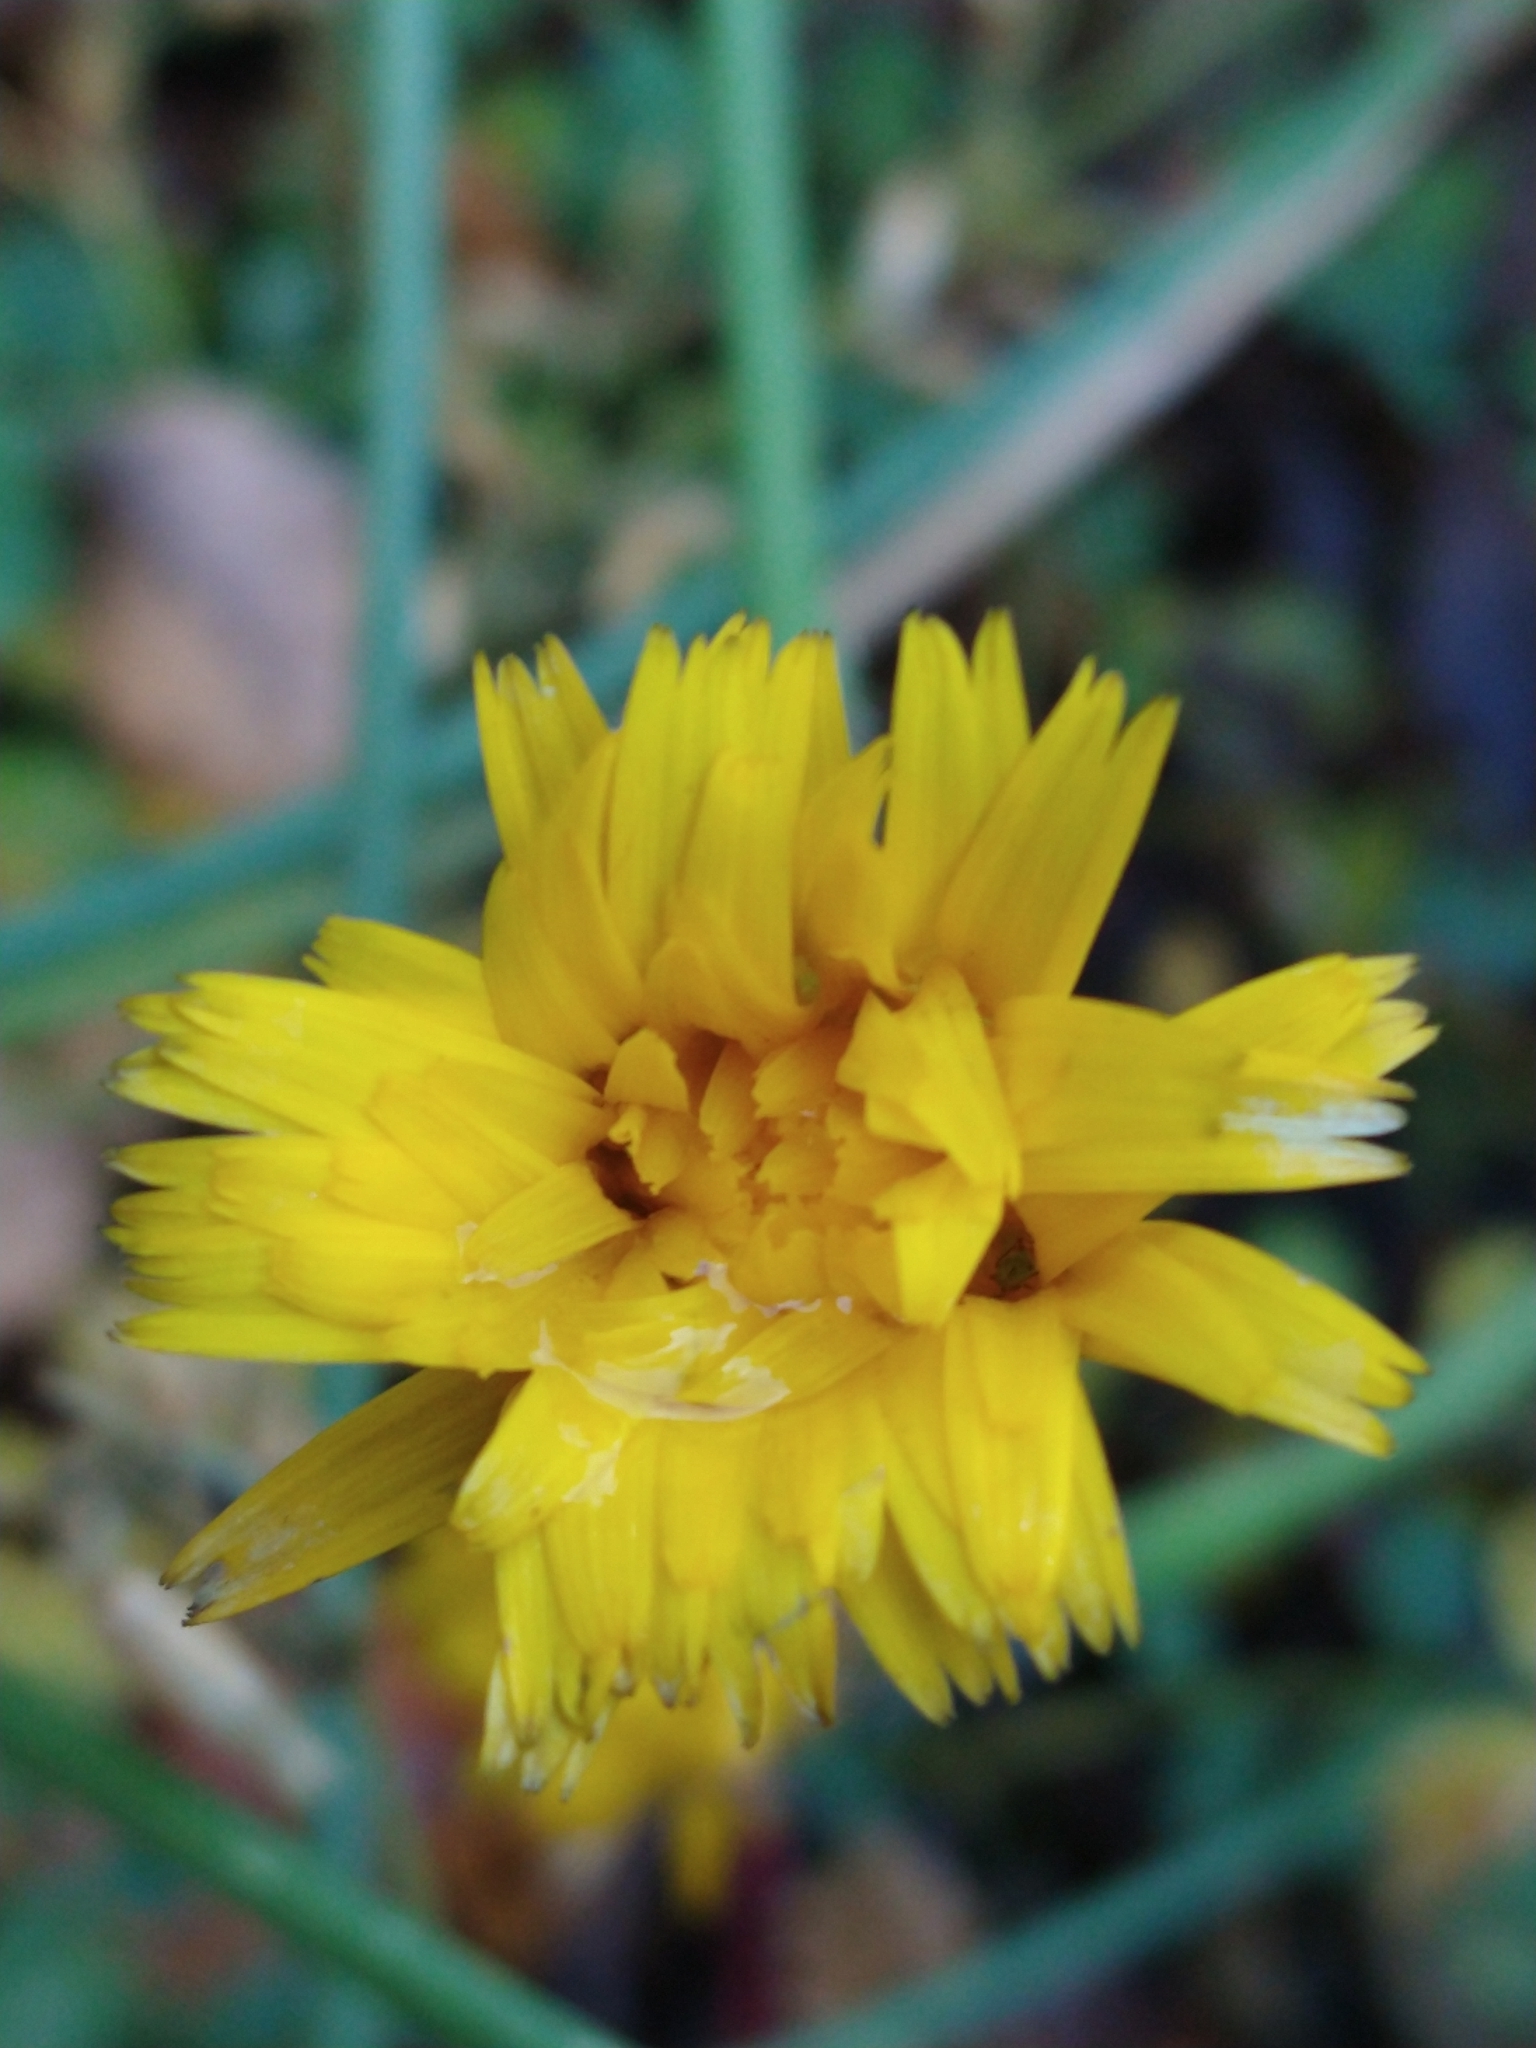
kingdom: Plantae
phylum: Tracheophyta
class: Magnoliopsida
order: Asterales
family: Asteraceae
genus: Hypochaeris
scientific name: Hypochaeris radicata
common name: Flatweed
